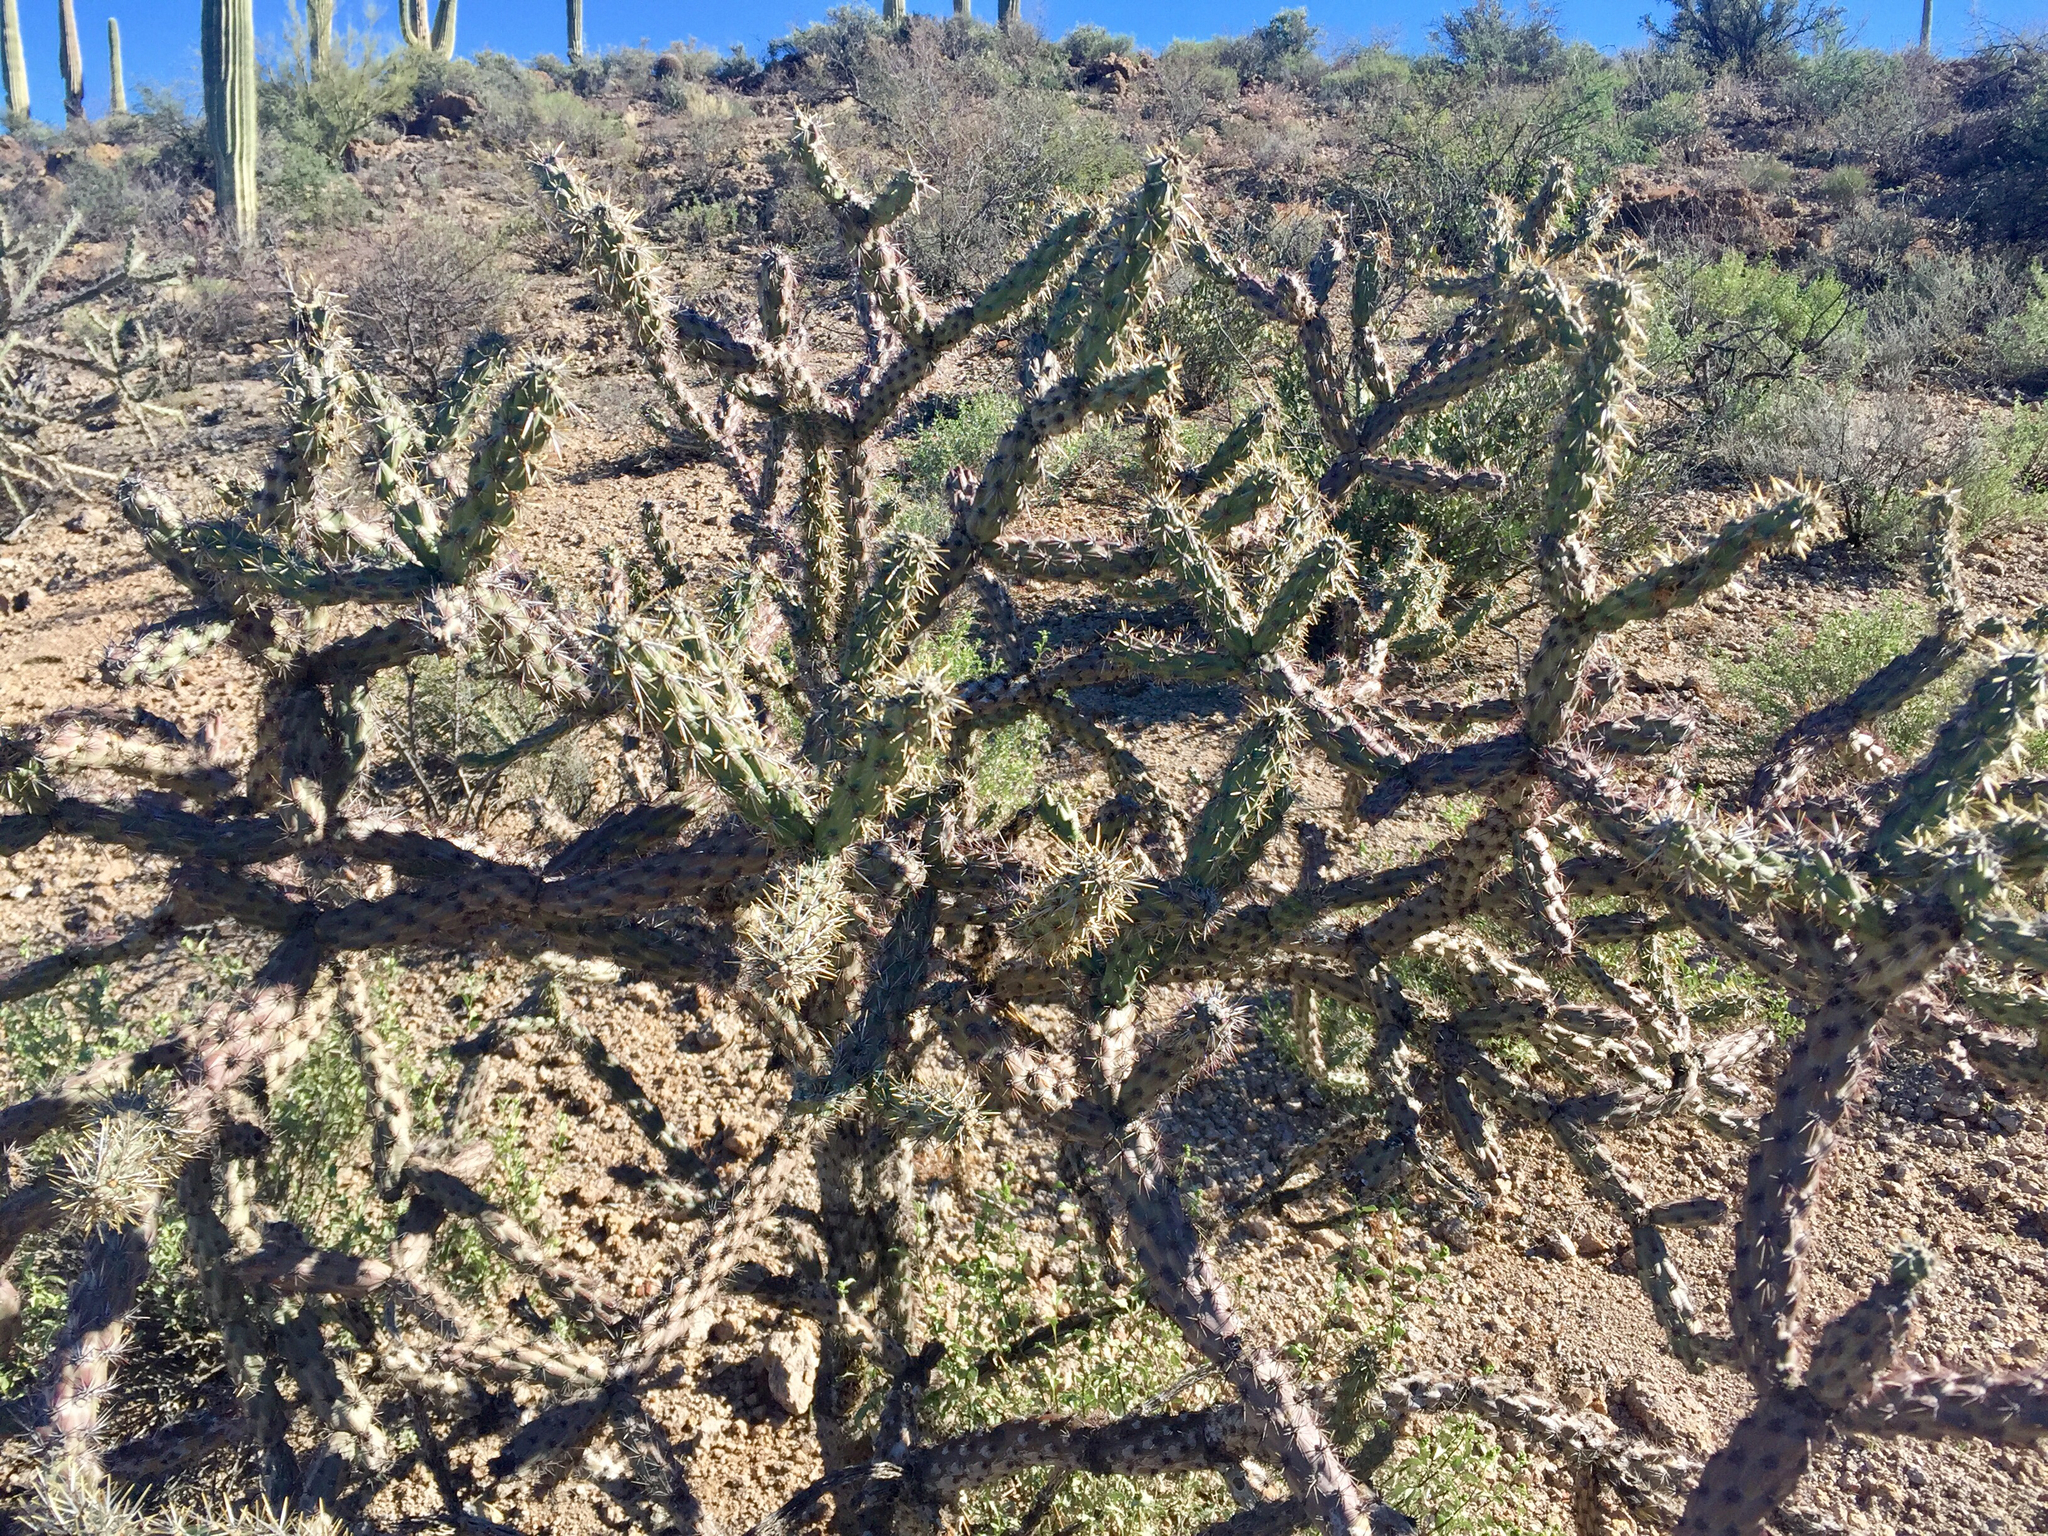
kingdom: Plantae
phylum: Tracheophyta
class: Magnoliopsida
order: Caryophyllales
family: Cactaceae
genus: Cylindropuntia
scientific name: Cylindropuntia acanthocarpa
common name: Buckhorn cholla
